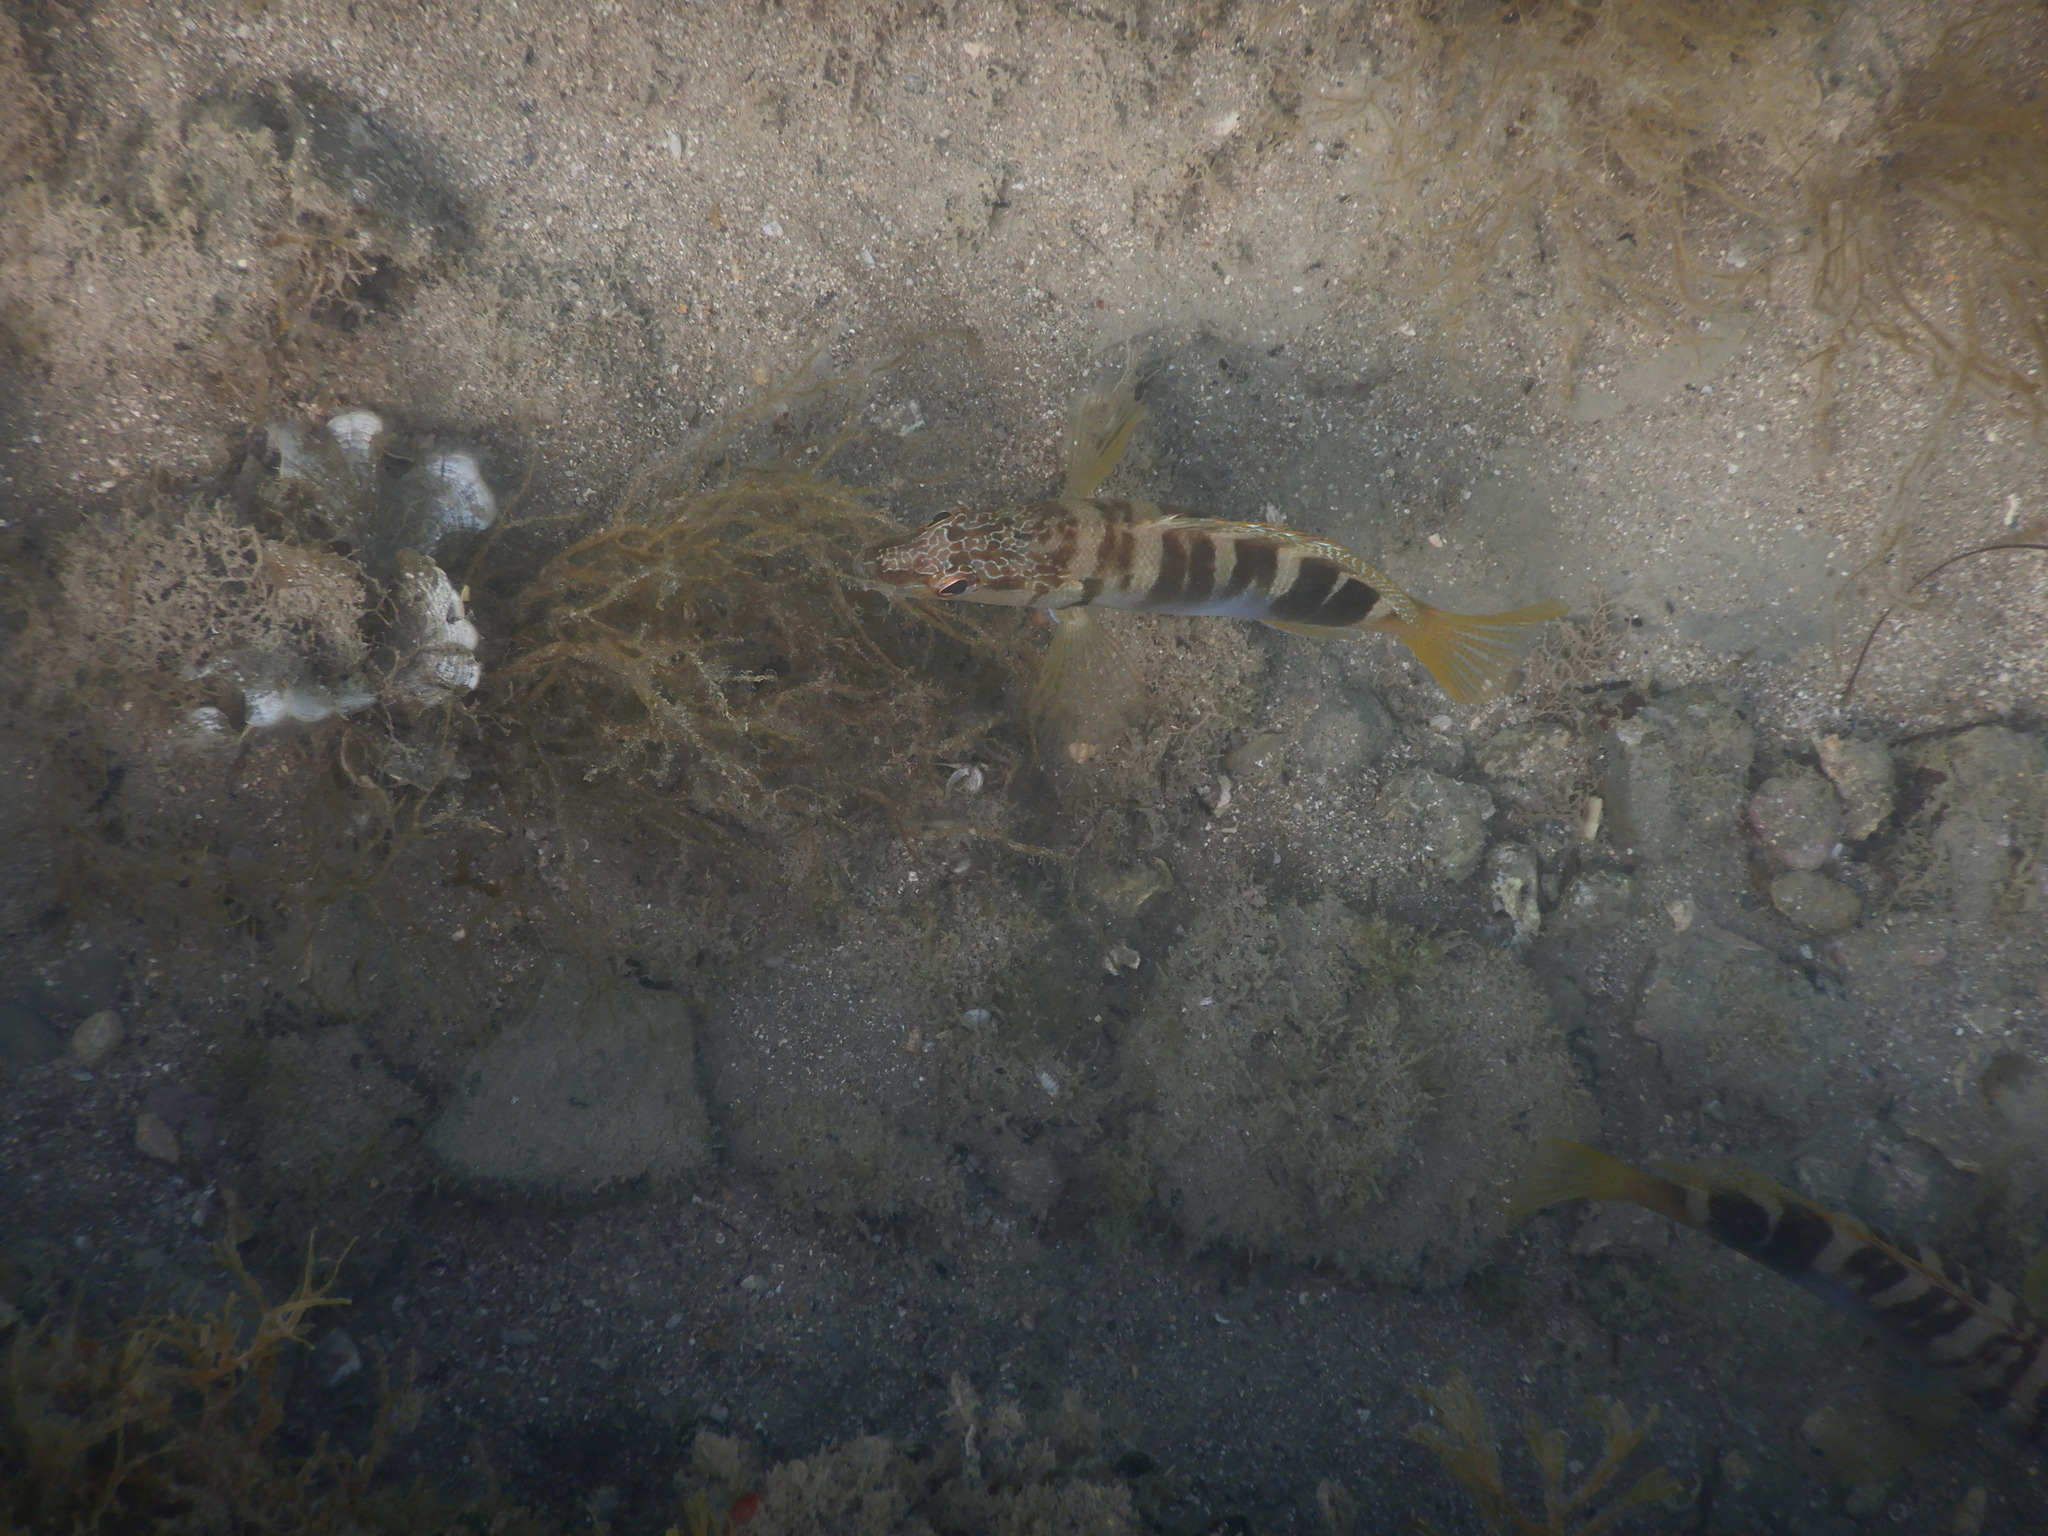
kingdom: Animalia
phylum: Chordata
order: Perciformes
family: Serranidae
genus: Serranus
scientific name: Serranus scriba
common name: Painted comber
